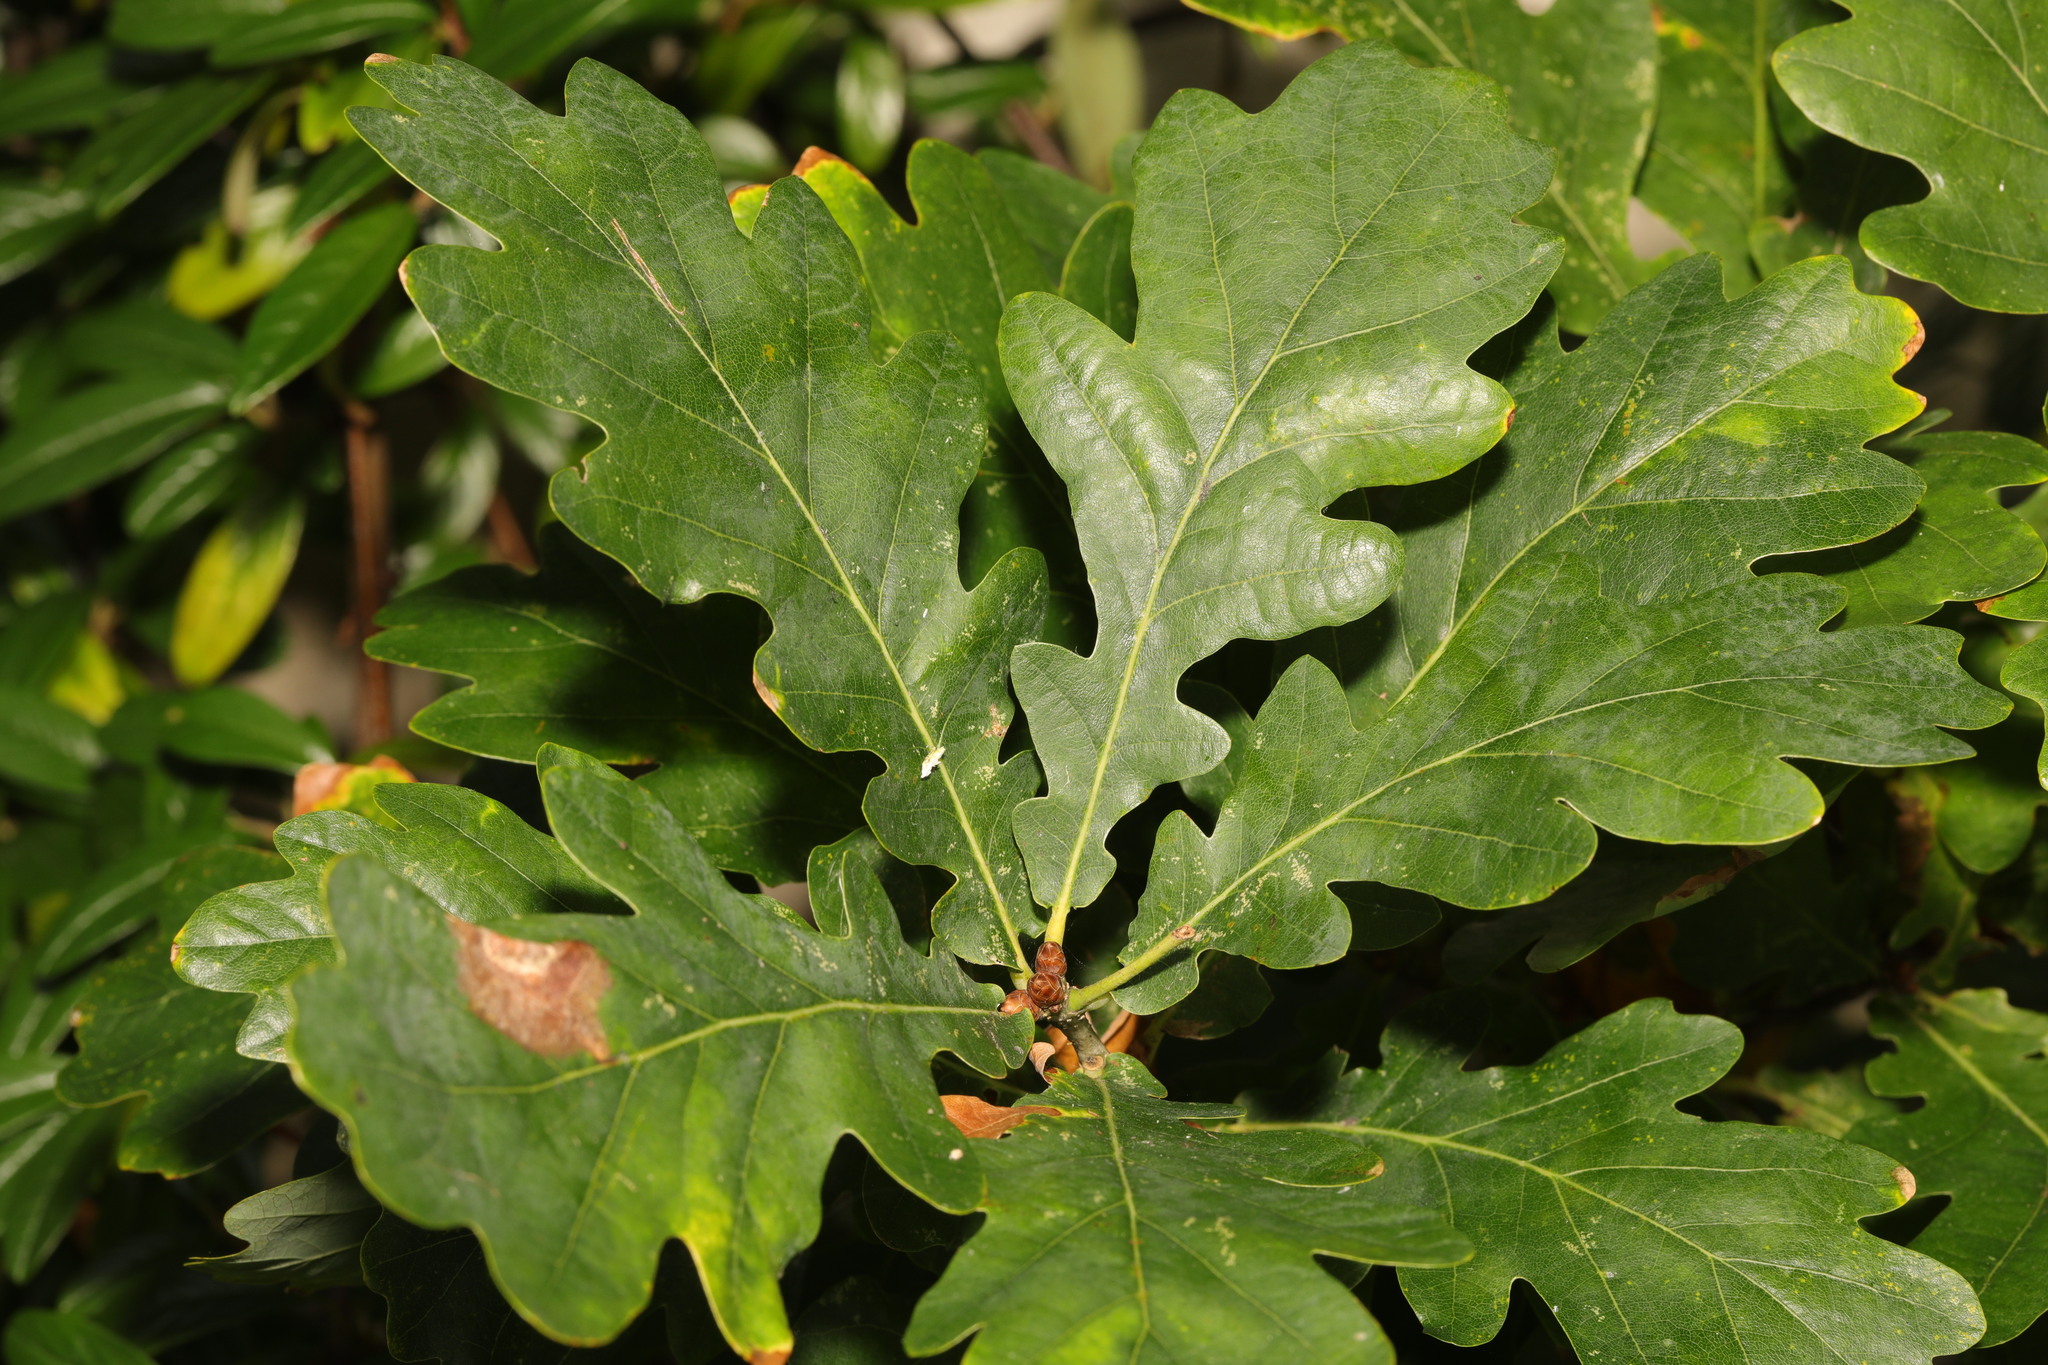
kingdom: Plantae
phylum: Tracheophyta
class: Magnoliopsida
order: Fagales
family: Fagaceae
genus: Quercus
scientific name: Quercus robur
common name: Pedunculate oak
